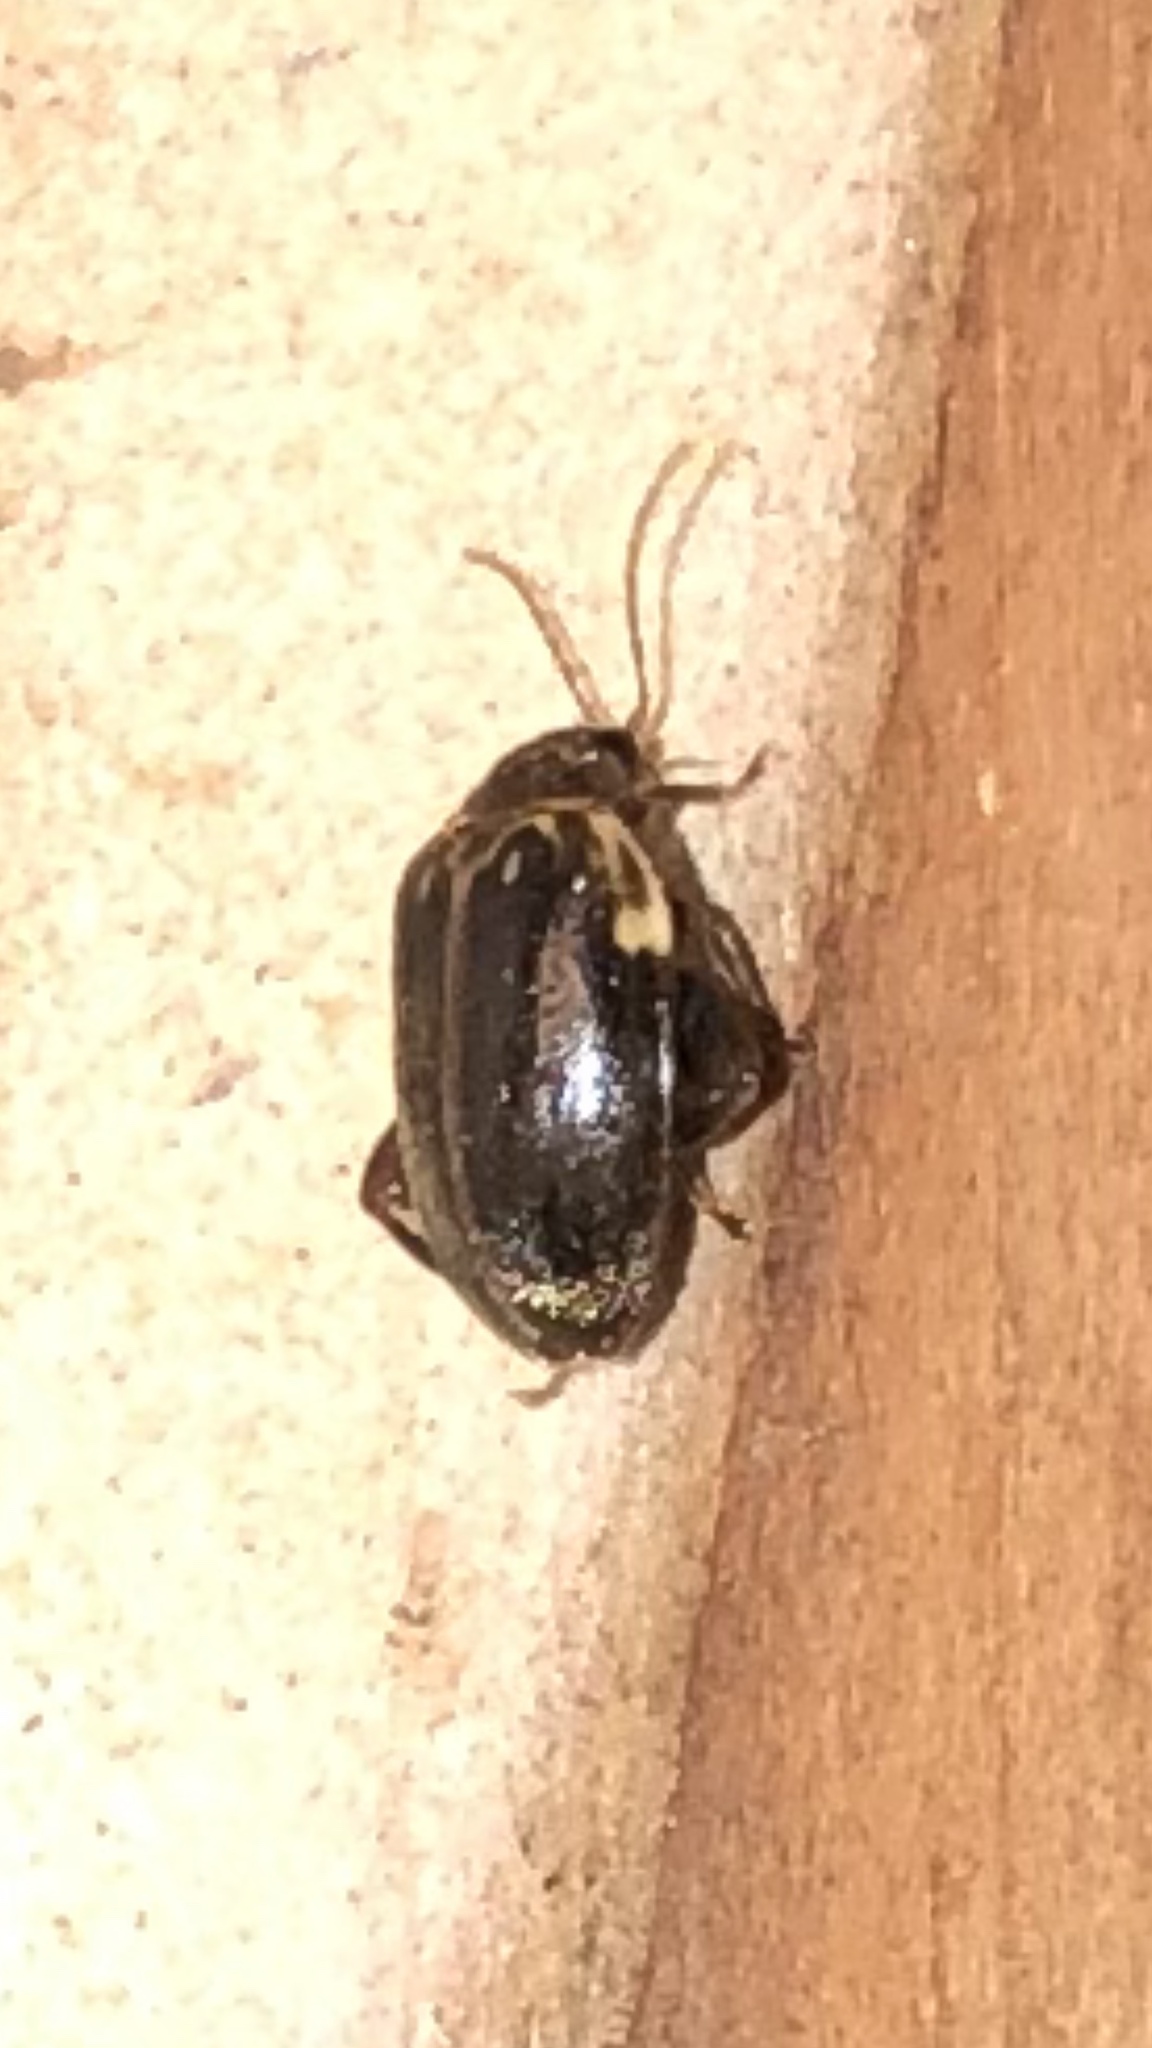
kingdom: Animalia
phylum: Arthropoda
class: Insecta
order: Coleoptera
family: Scirtidae
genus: Ora
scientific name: Ora texana
